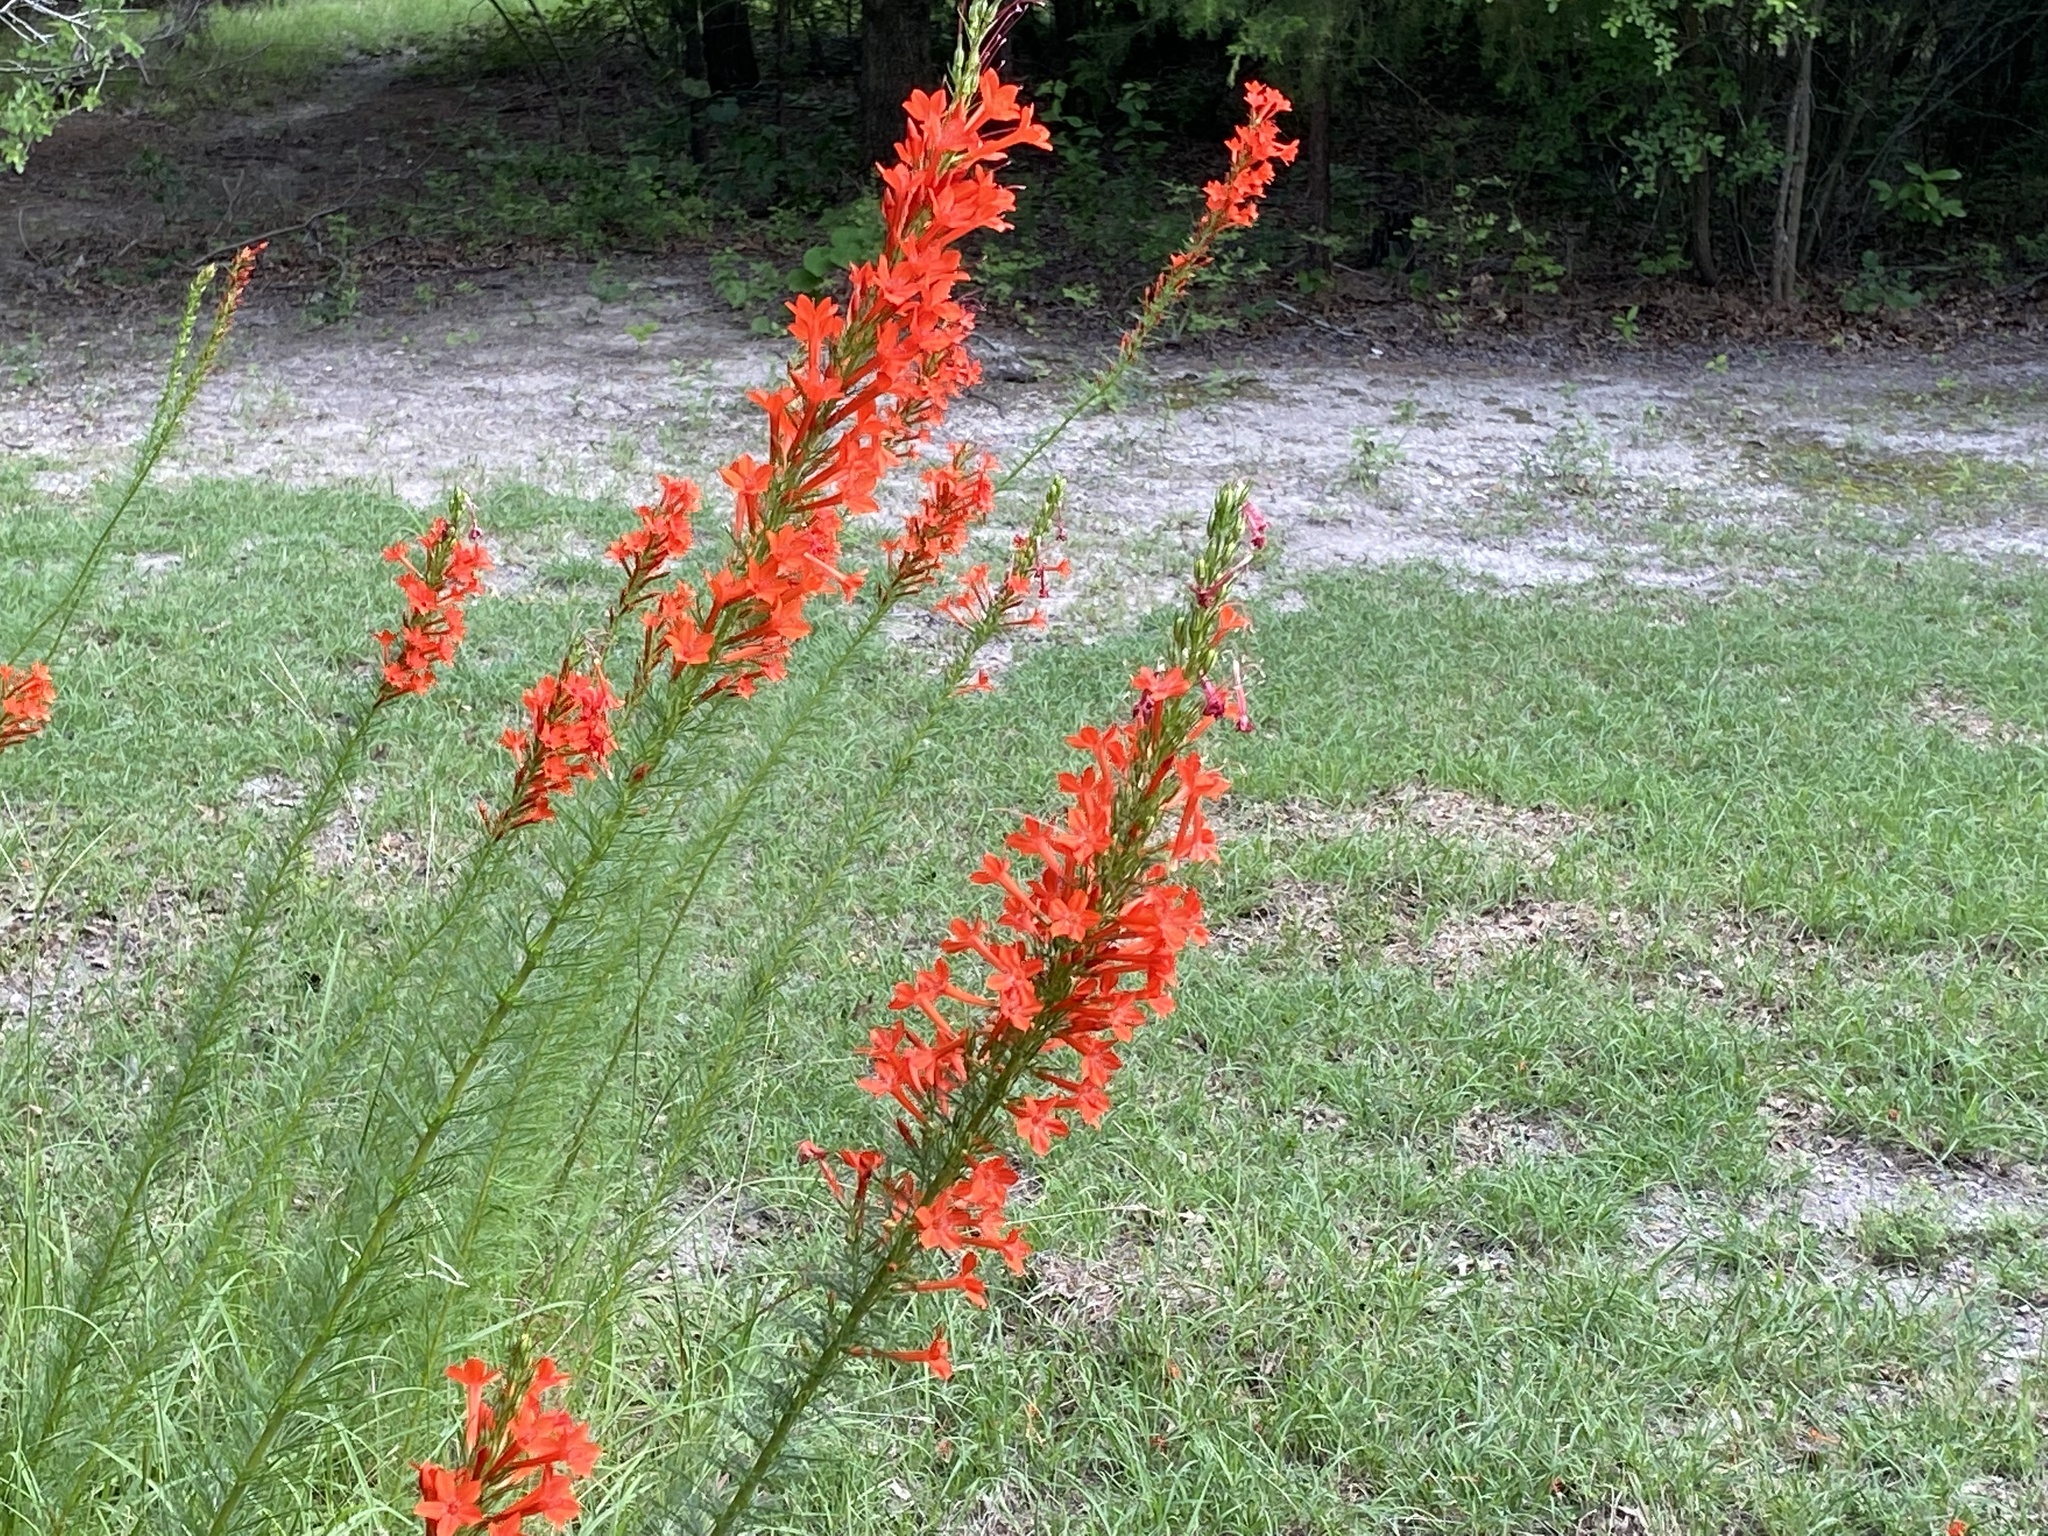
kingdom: Plantae
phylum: Tracheophyta
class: Magnoliopsida
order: Ericales
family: Polemoniaceae
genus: Ipomopsis
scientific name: Ipomopsis rubra
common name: Skyrocket
